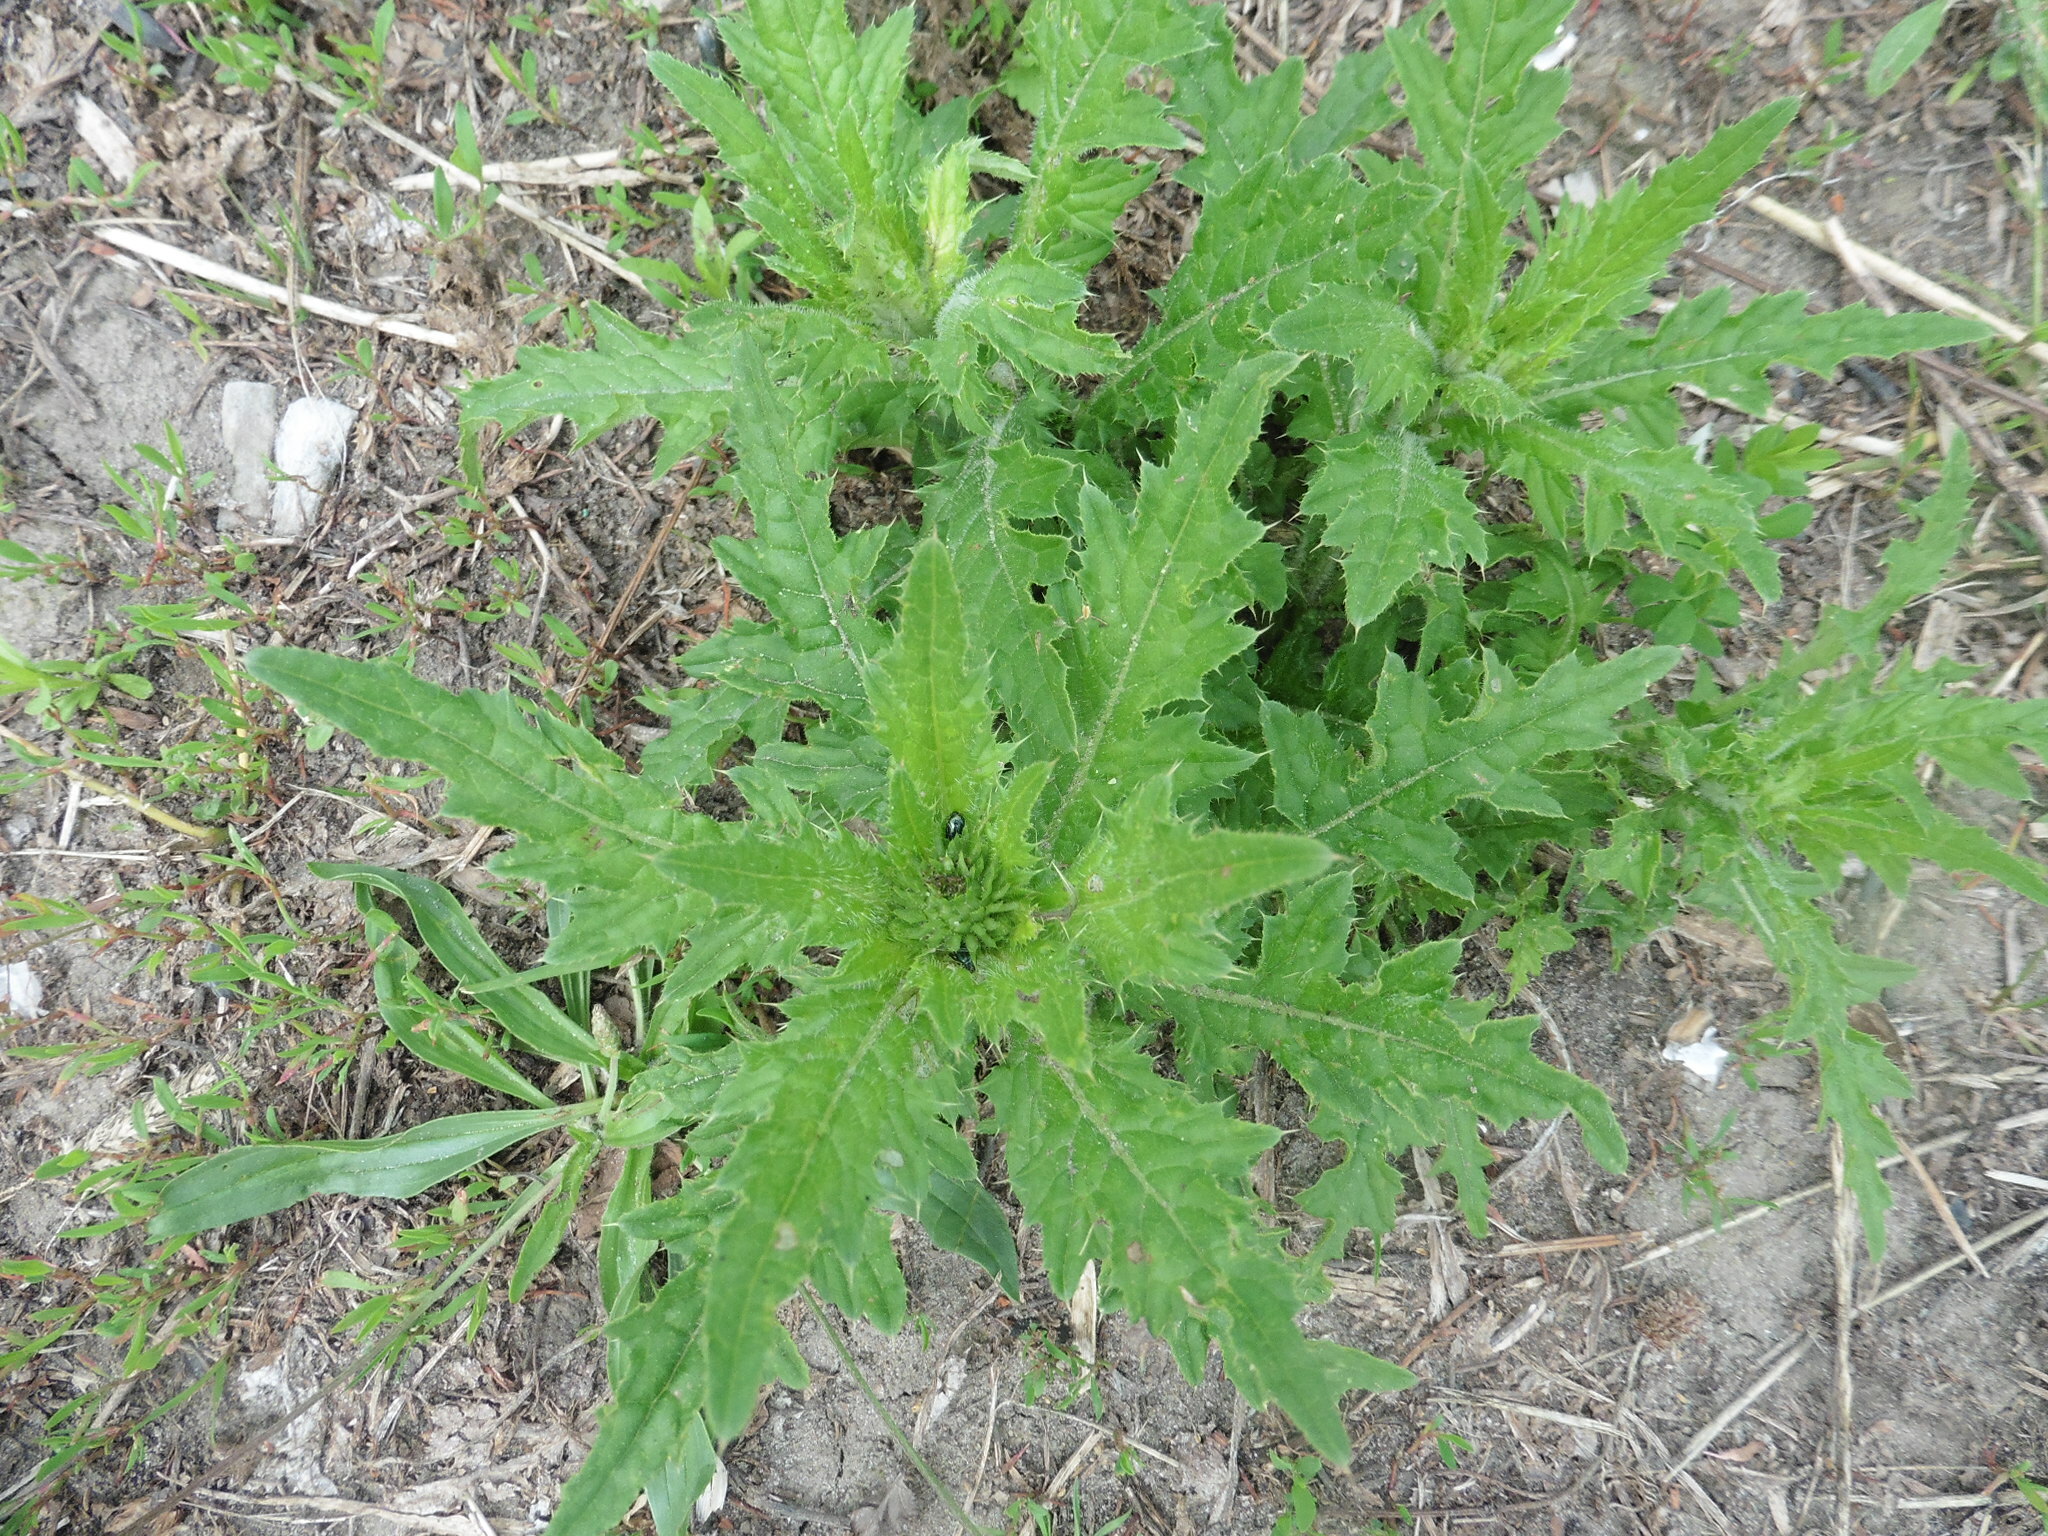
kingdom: Plantae
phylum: Tracheophyta
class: Magnoliopsida
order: Asterales
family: Asteraceae
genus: Carduus
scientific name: Carduus crispus
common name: Welted thistle
